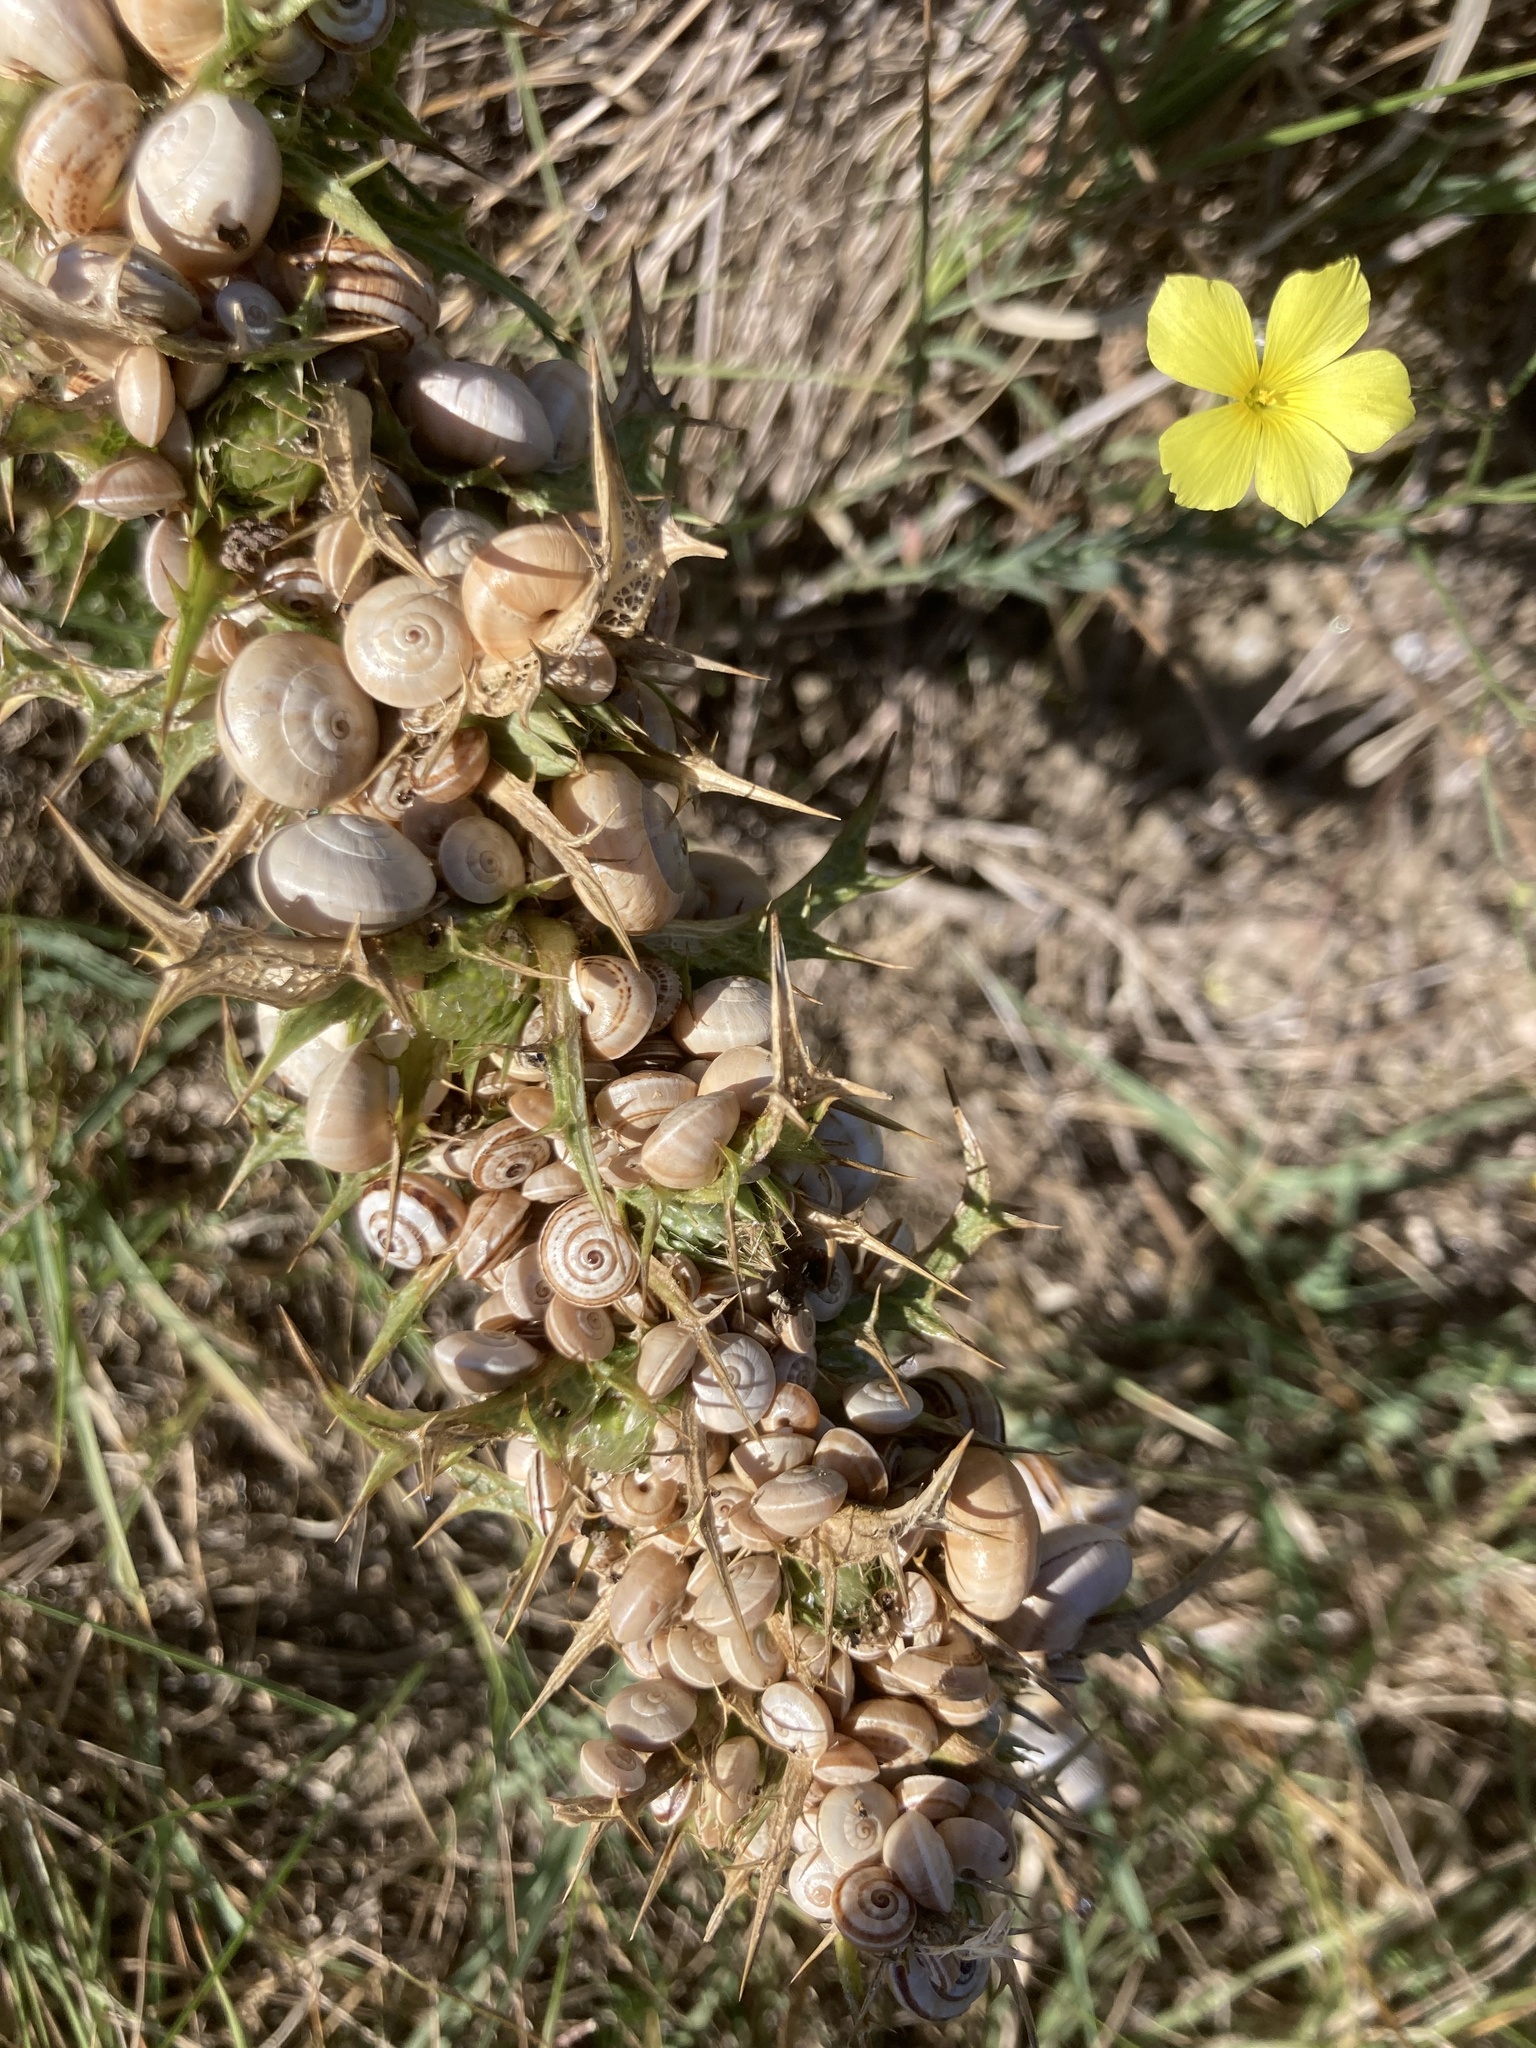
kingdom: Animalia
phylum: Mollusca
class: Gastropoda
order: Stylommatophora
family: Helicidae
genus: Theba
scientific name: Theba pisana
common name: White snail
